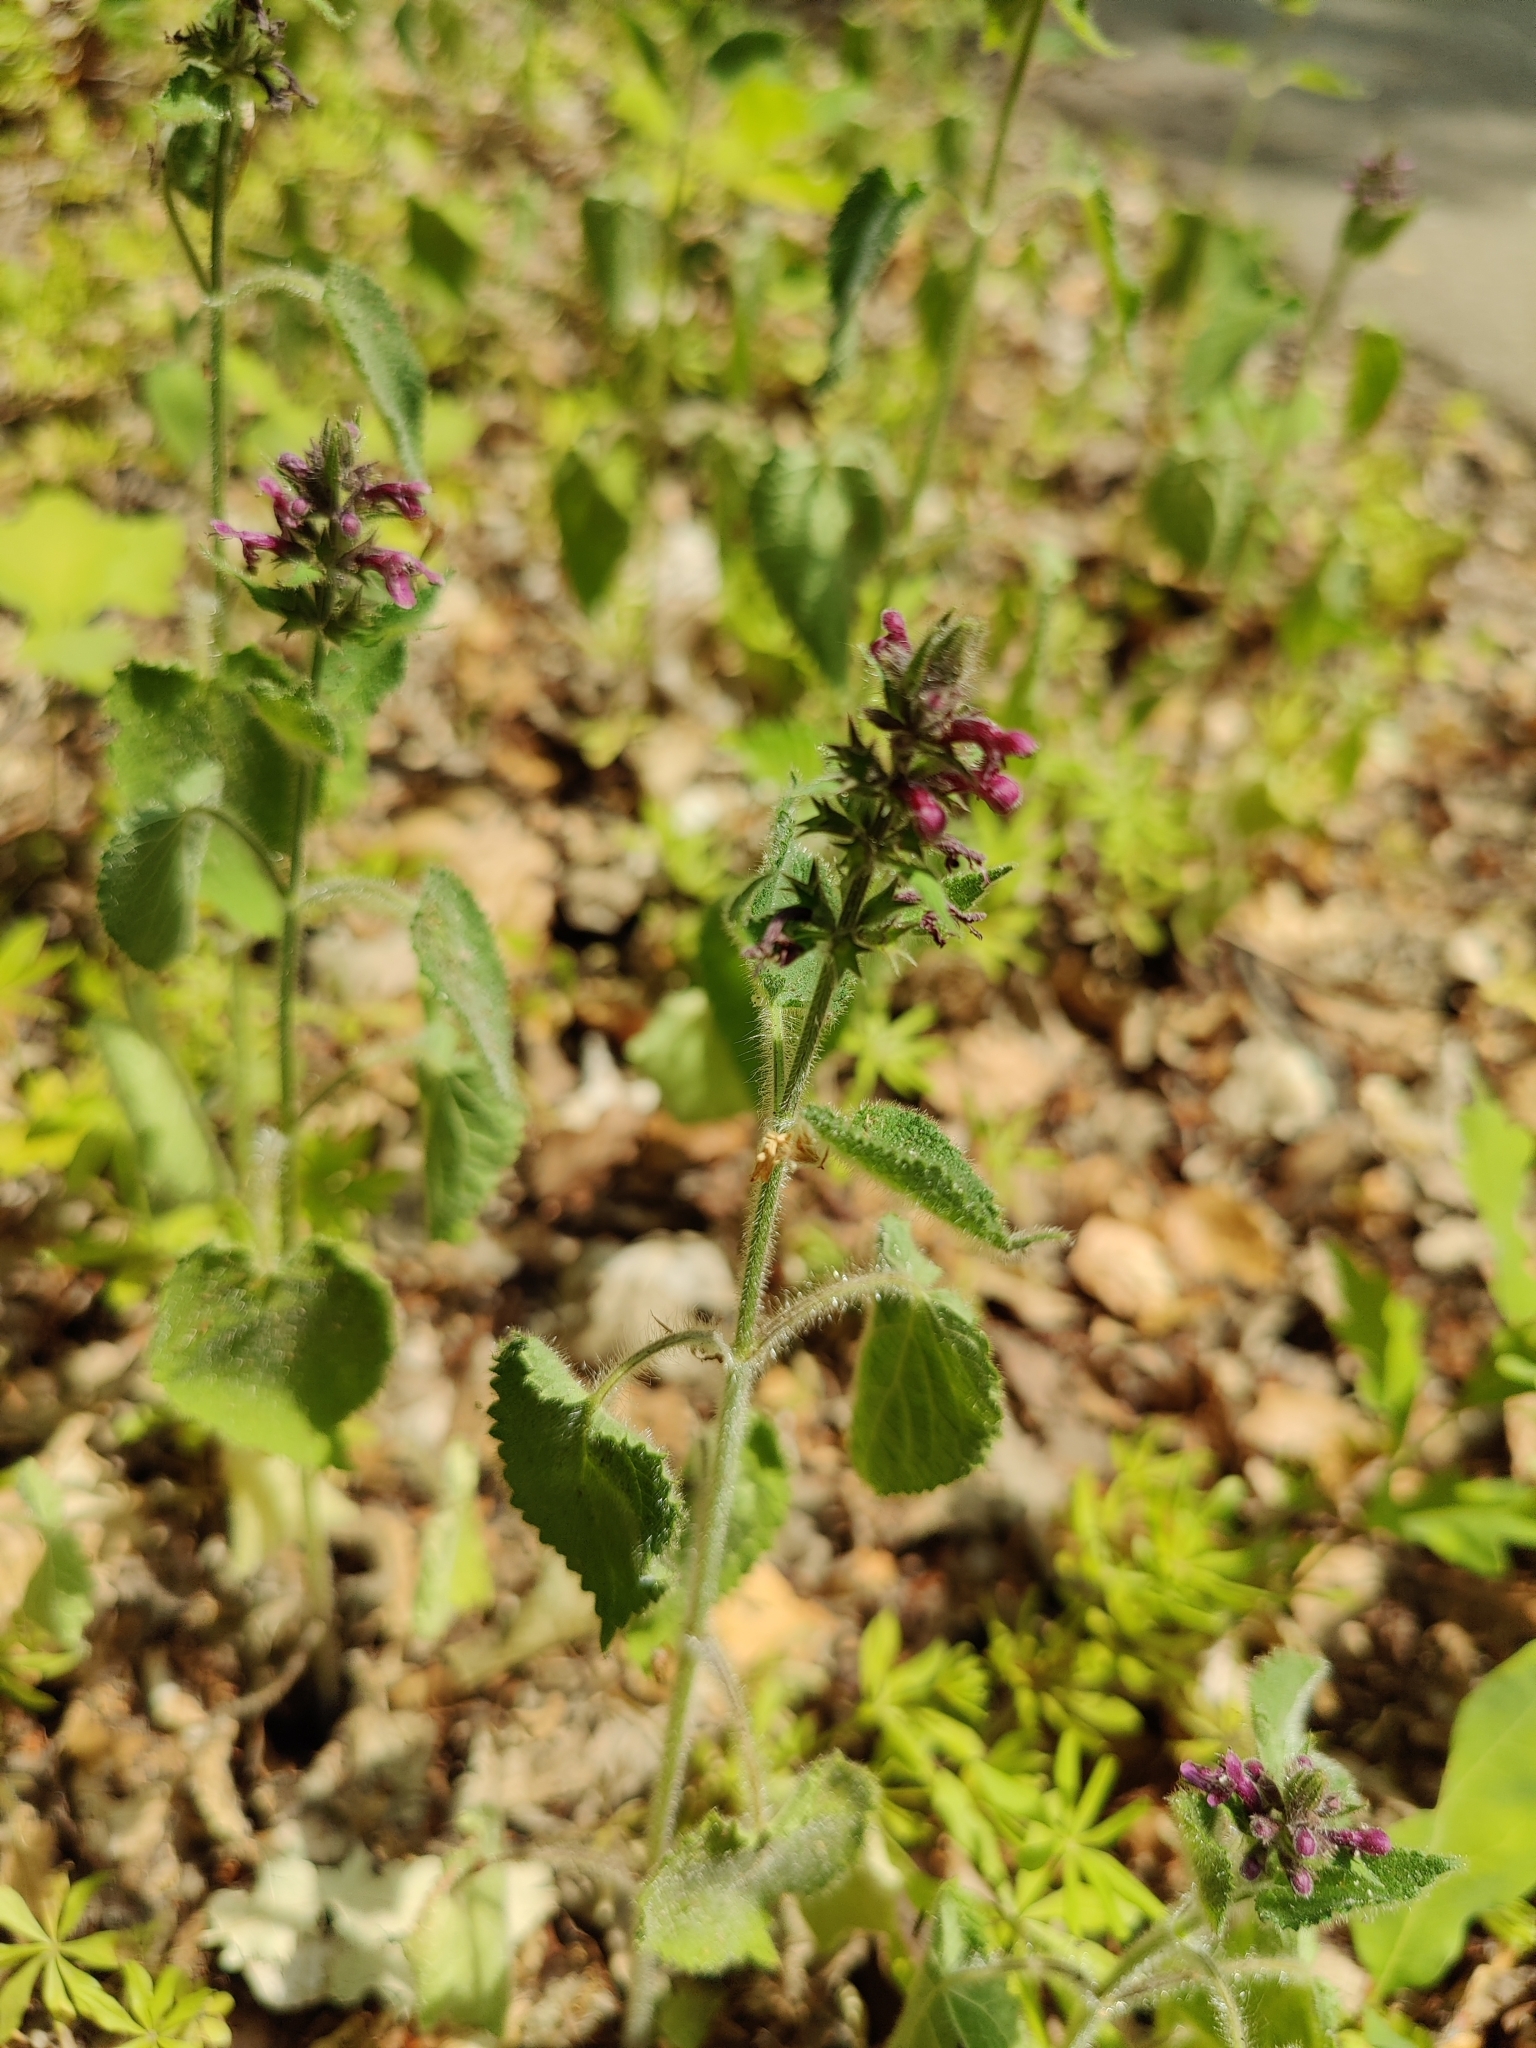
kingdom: Plantae
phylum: Tracheophyta
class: Magnoliopsida
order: Lamiales
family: Lamiaceae
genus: Stachys
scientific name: Stachys sylvatica
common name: Hedge woundwort
